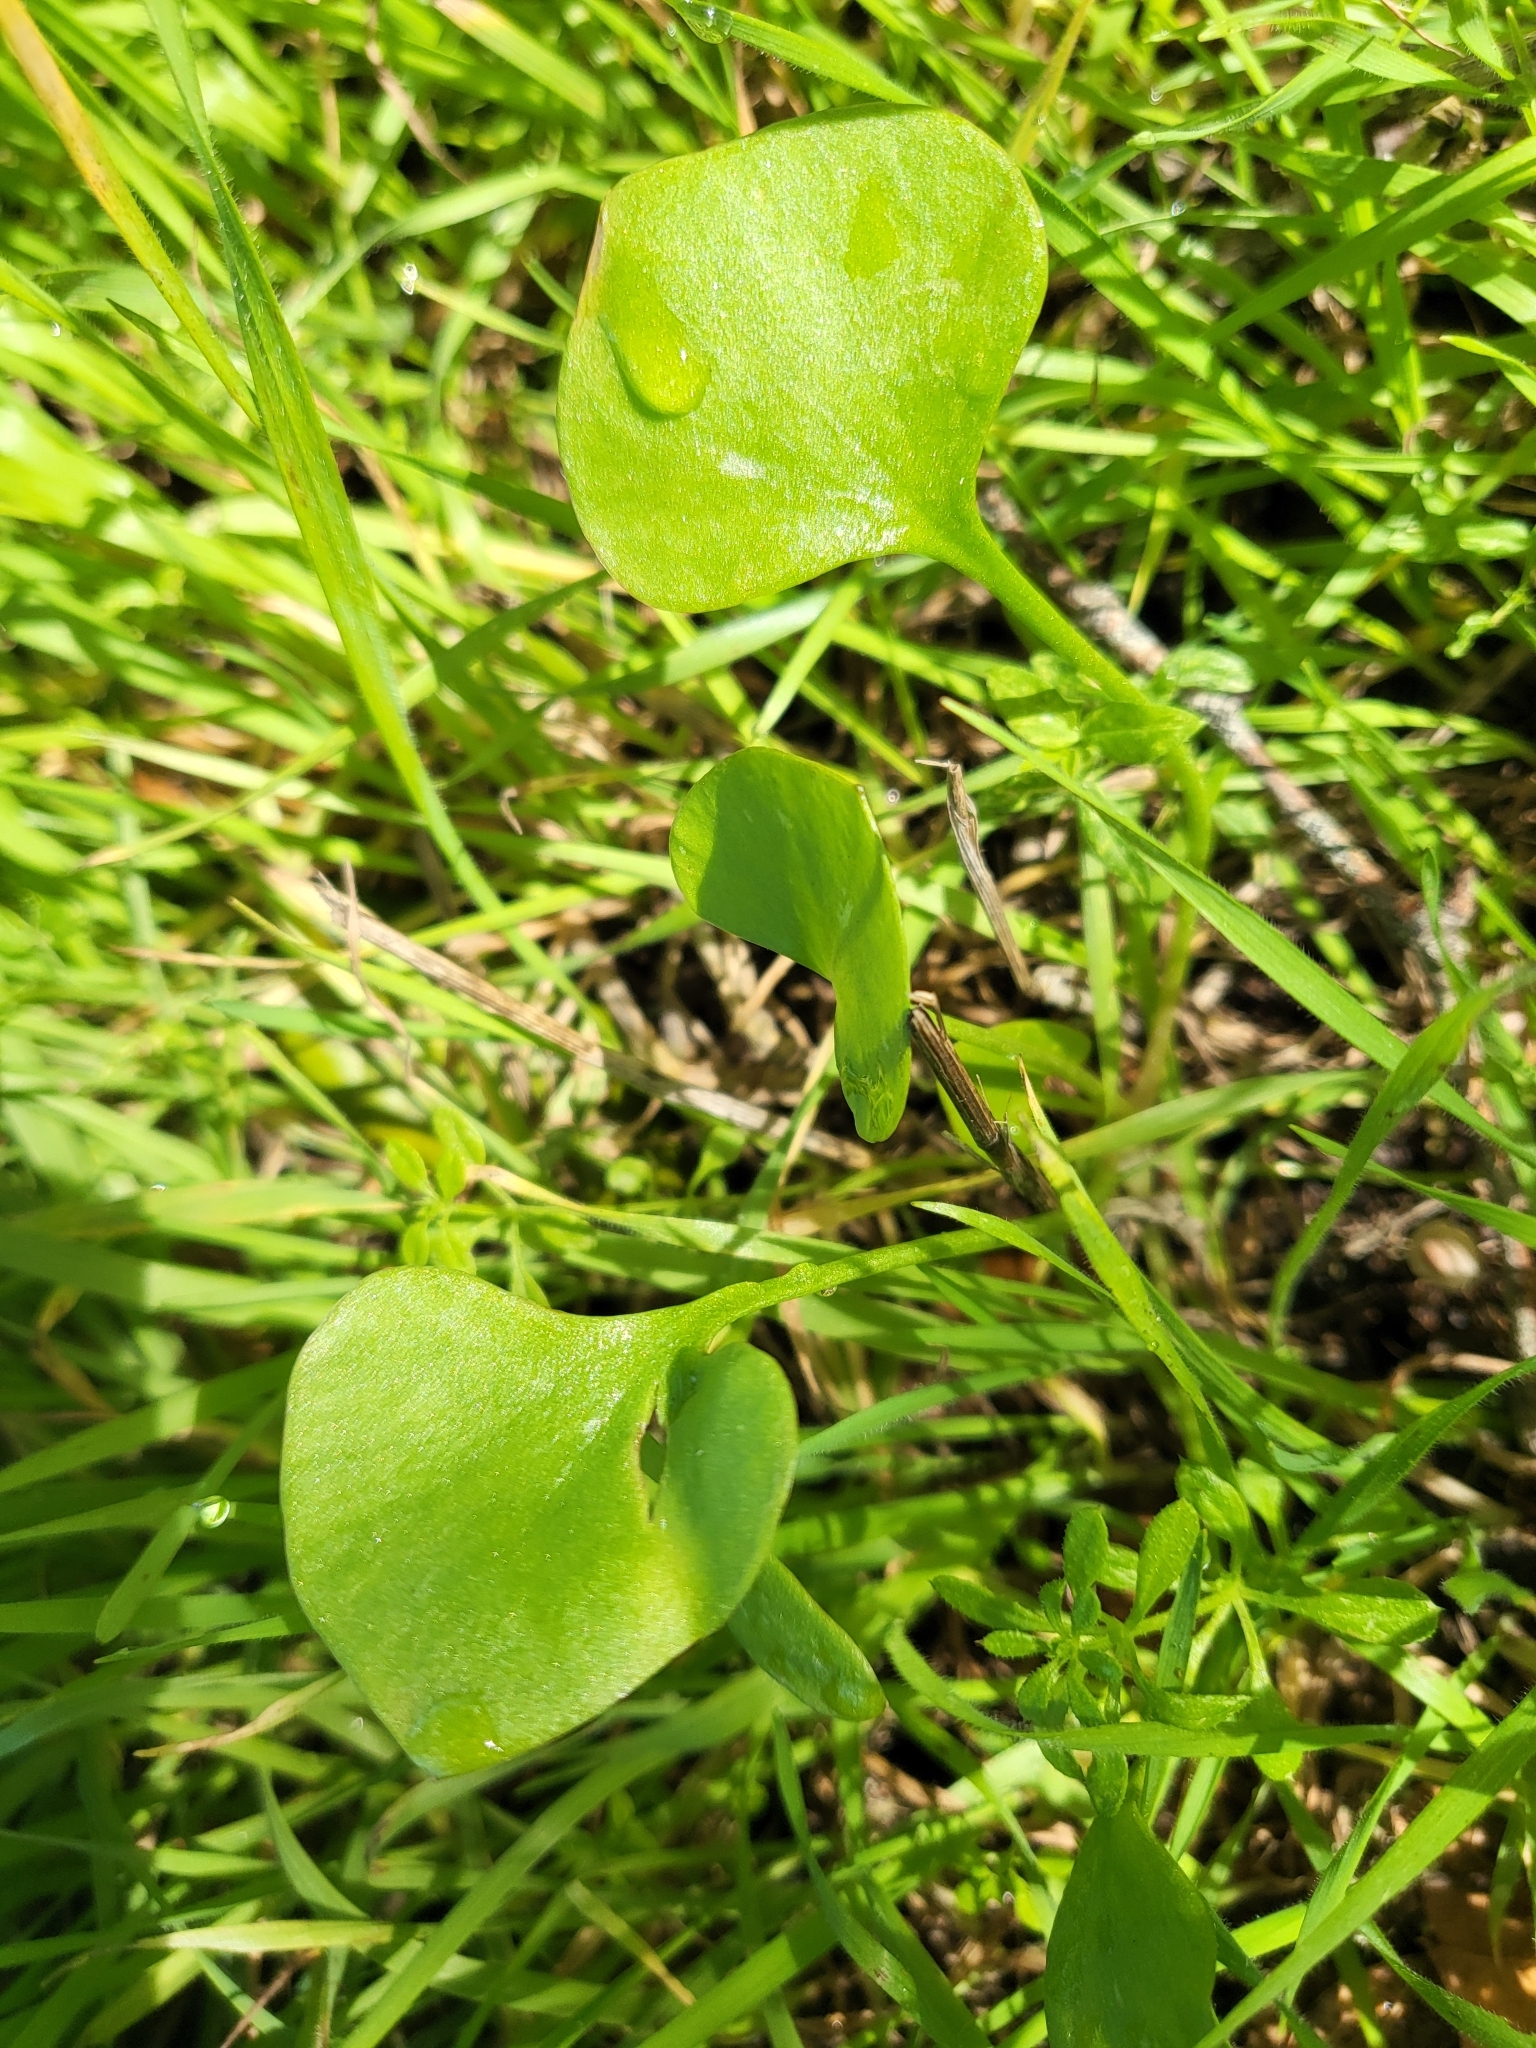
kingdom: Plantae
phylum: Tracheophyta
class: Magnoliopsida
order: Caryophyllales
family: Montiaceae
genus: Claytonia
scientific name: Claytonia perfoliata
